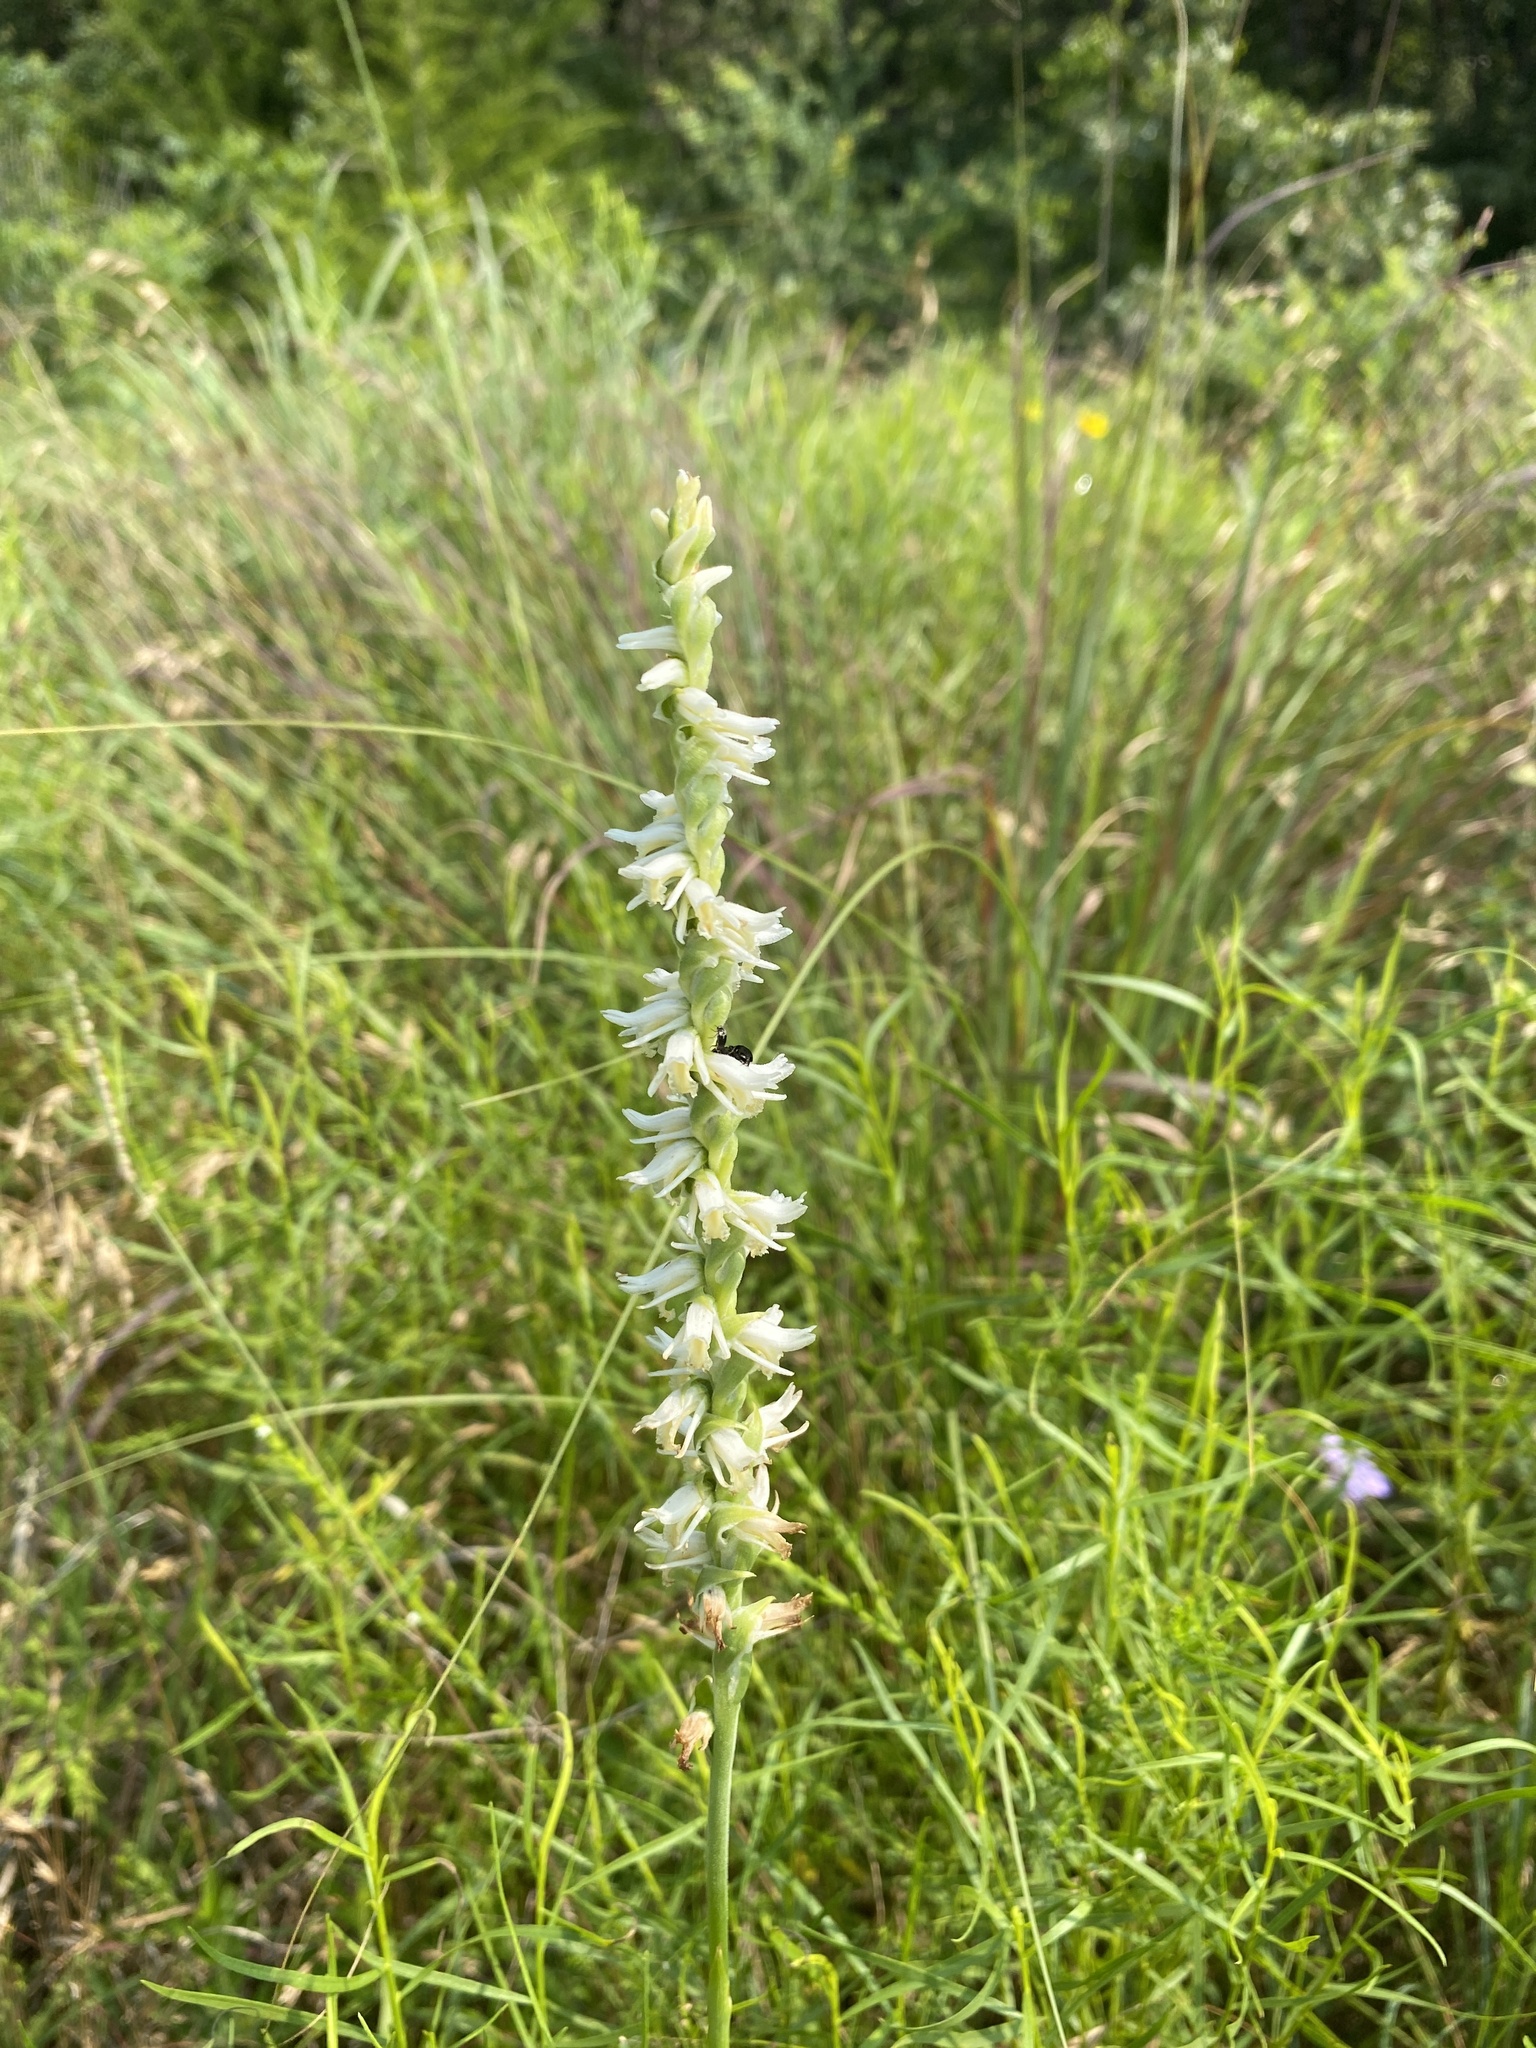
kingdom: Plantae
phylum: Tracheophyta
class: Liliopsida
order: Asparagales
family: Orchidaceae
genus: Spiranthes
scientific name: Spiranthes vernalis
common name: Spring ladies'-tresses
